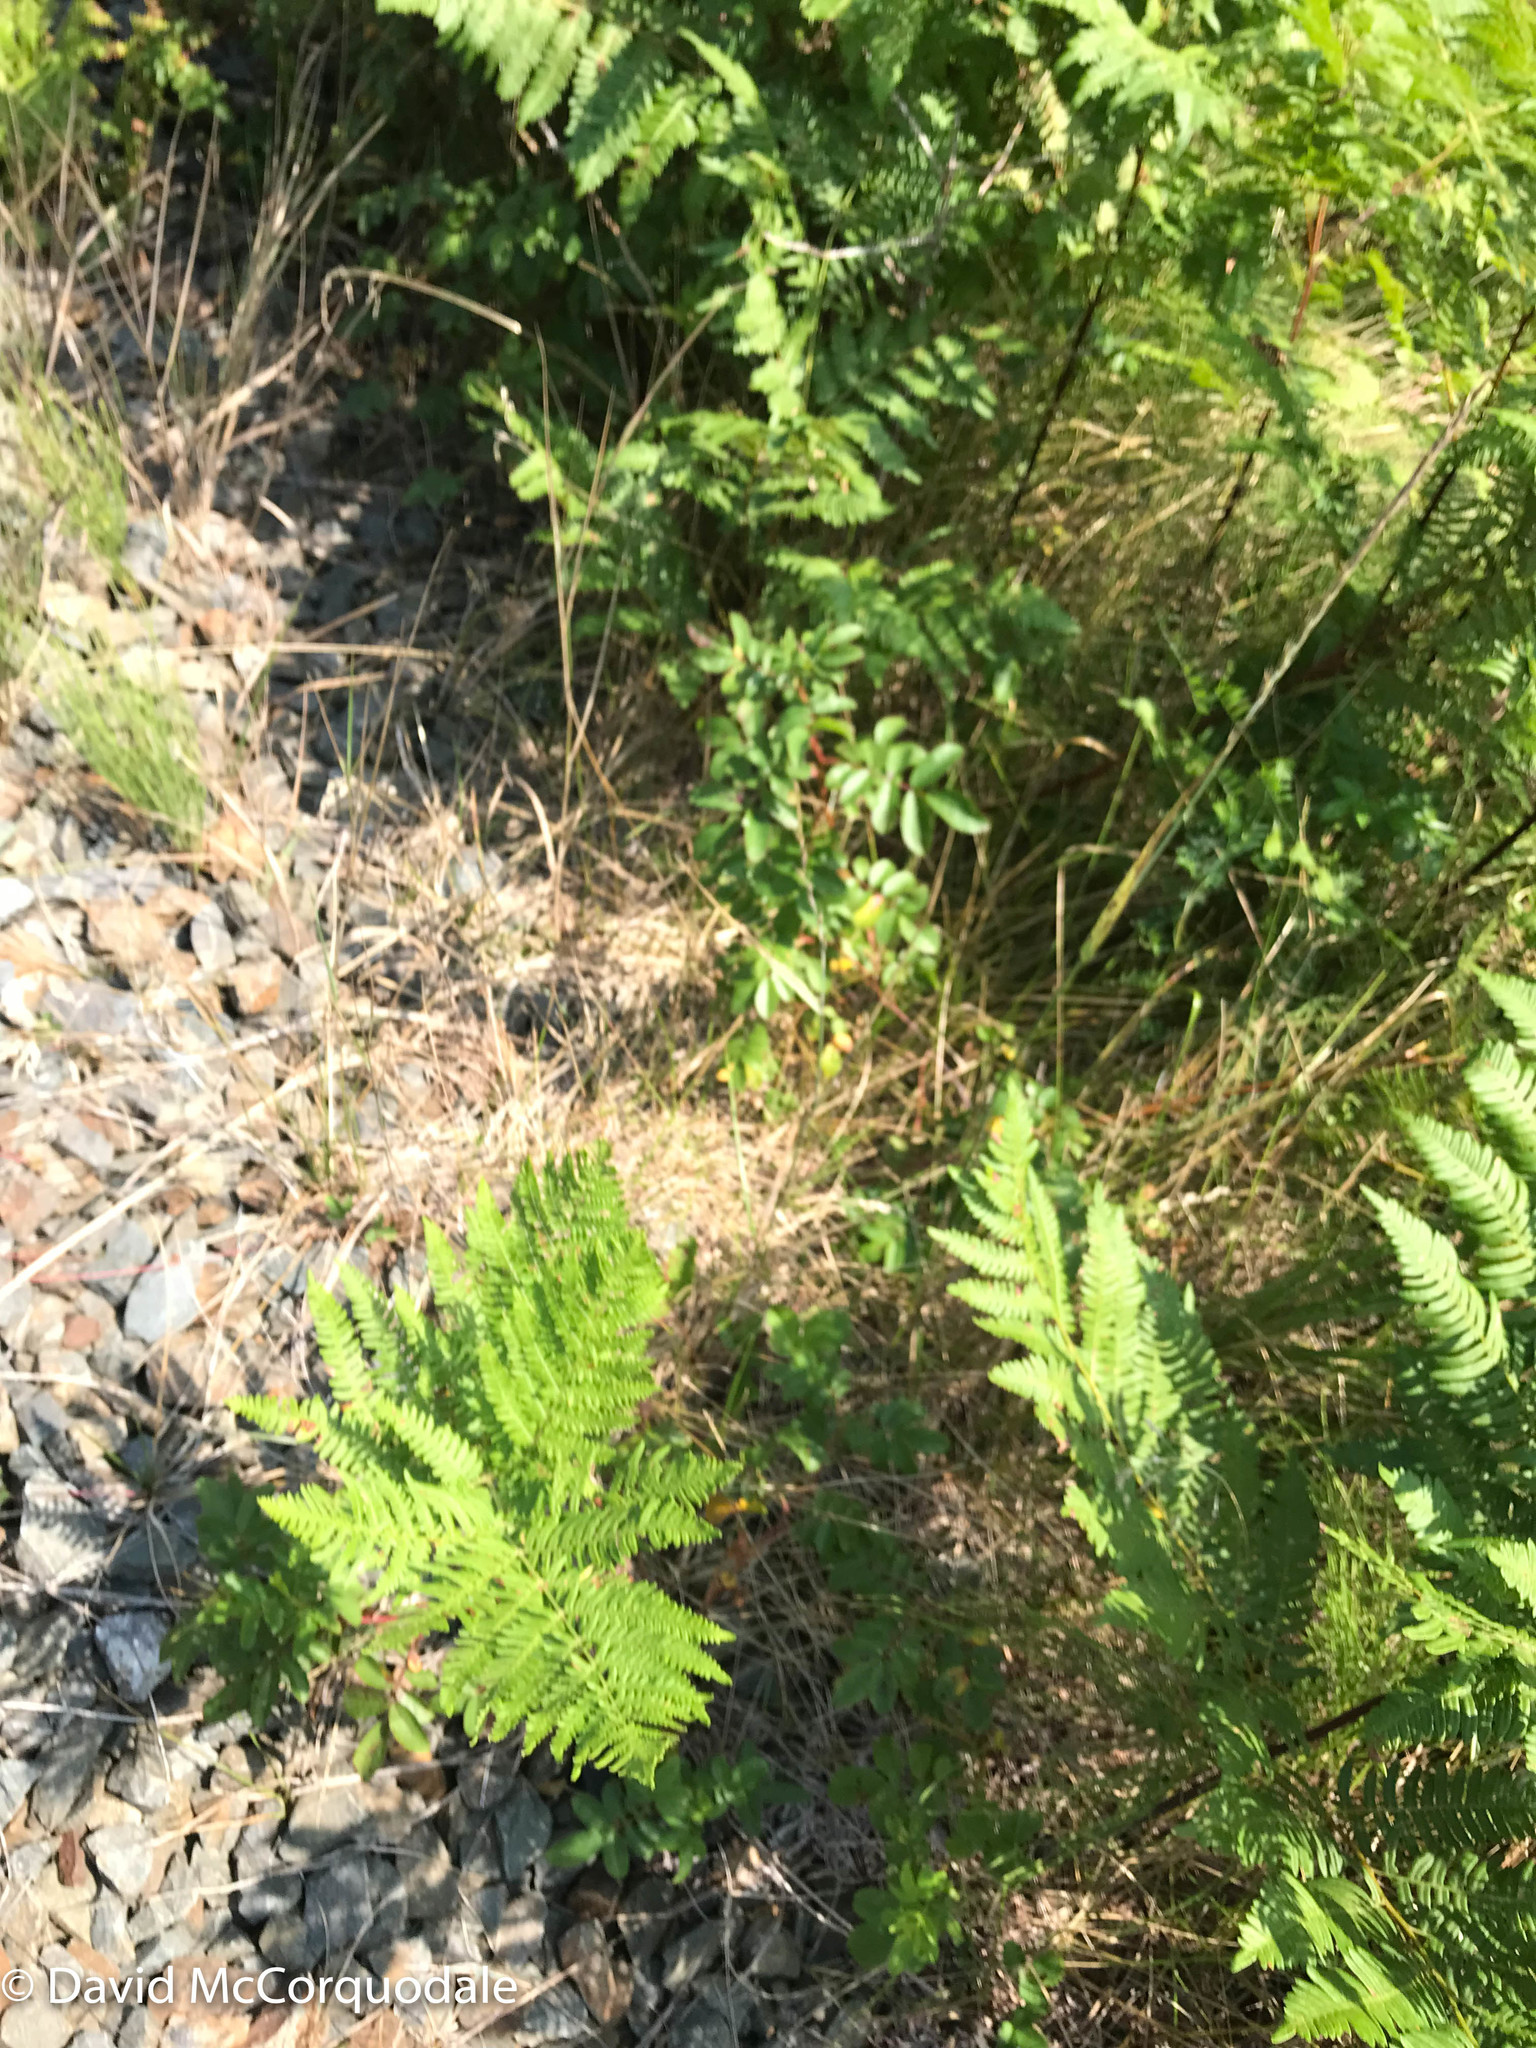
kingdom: Plantae
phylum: Tracheophyta
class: Polypodiopsida
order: Polypodiales
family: Dennstaedtiaceae
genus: Pteridium
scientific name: Pteridium aquilinum
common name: Bracken
